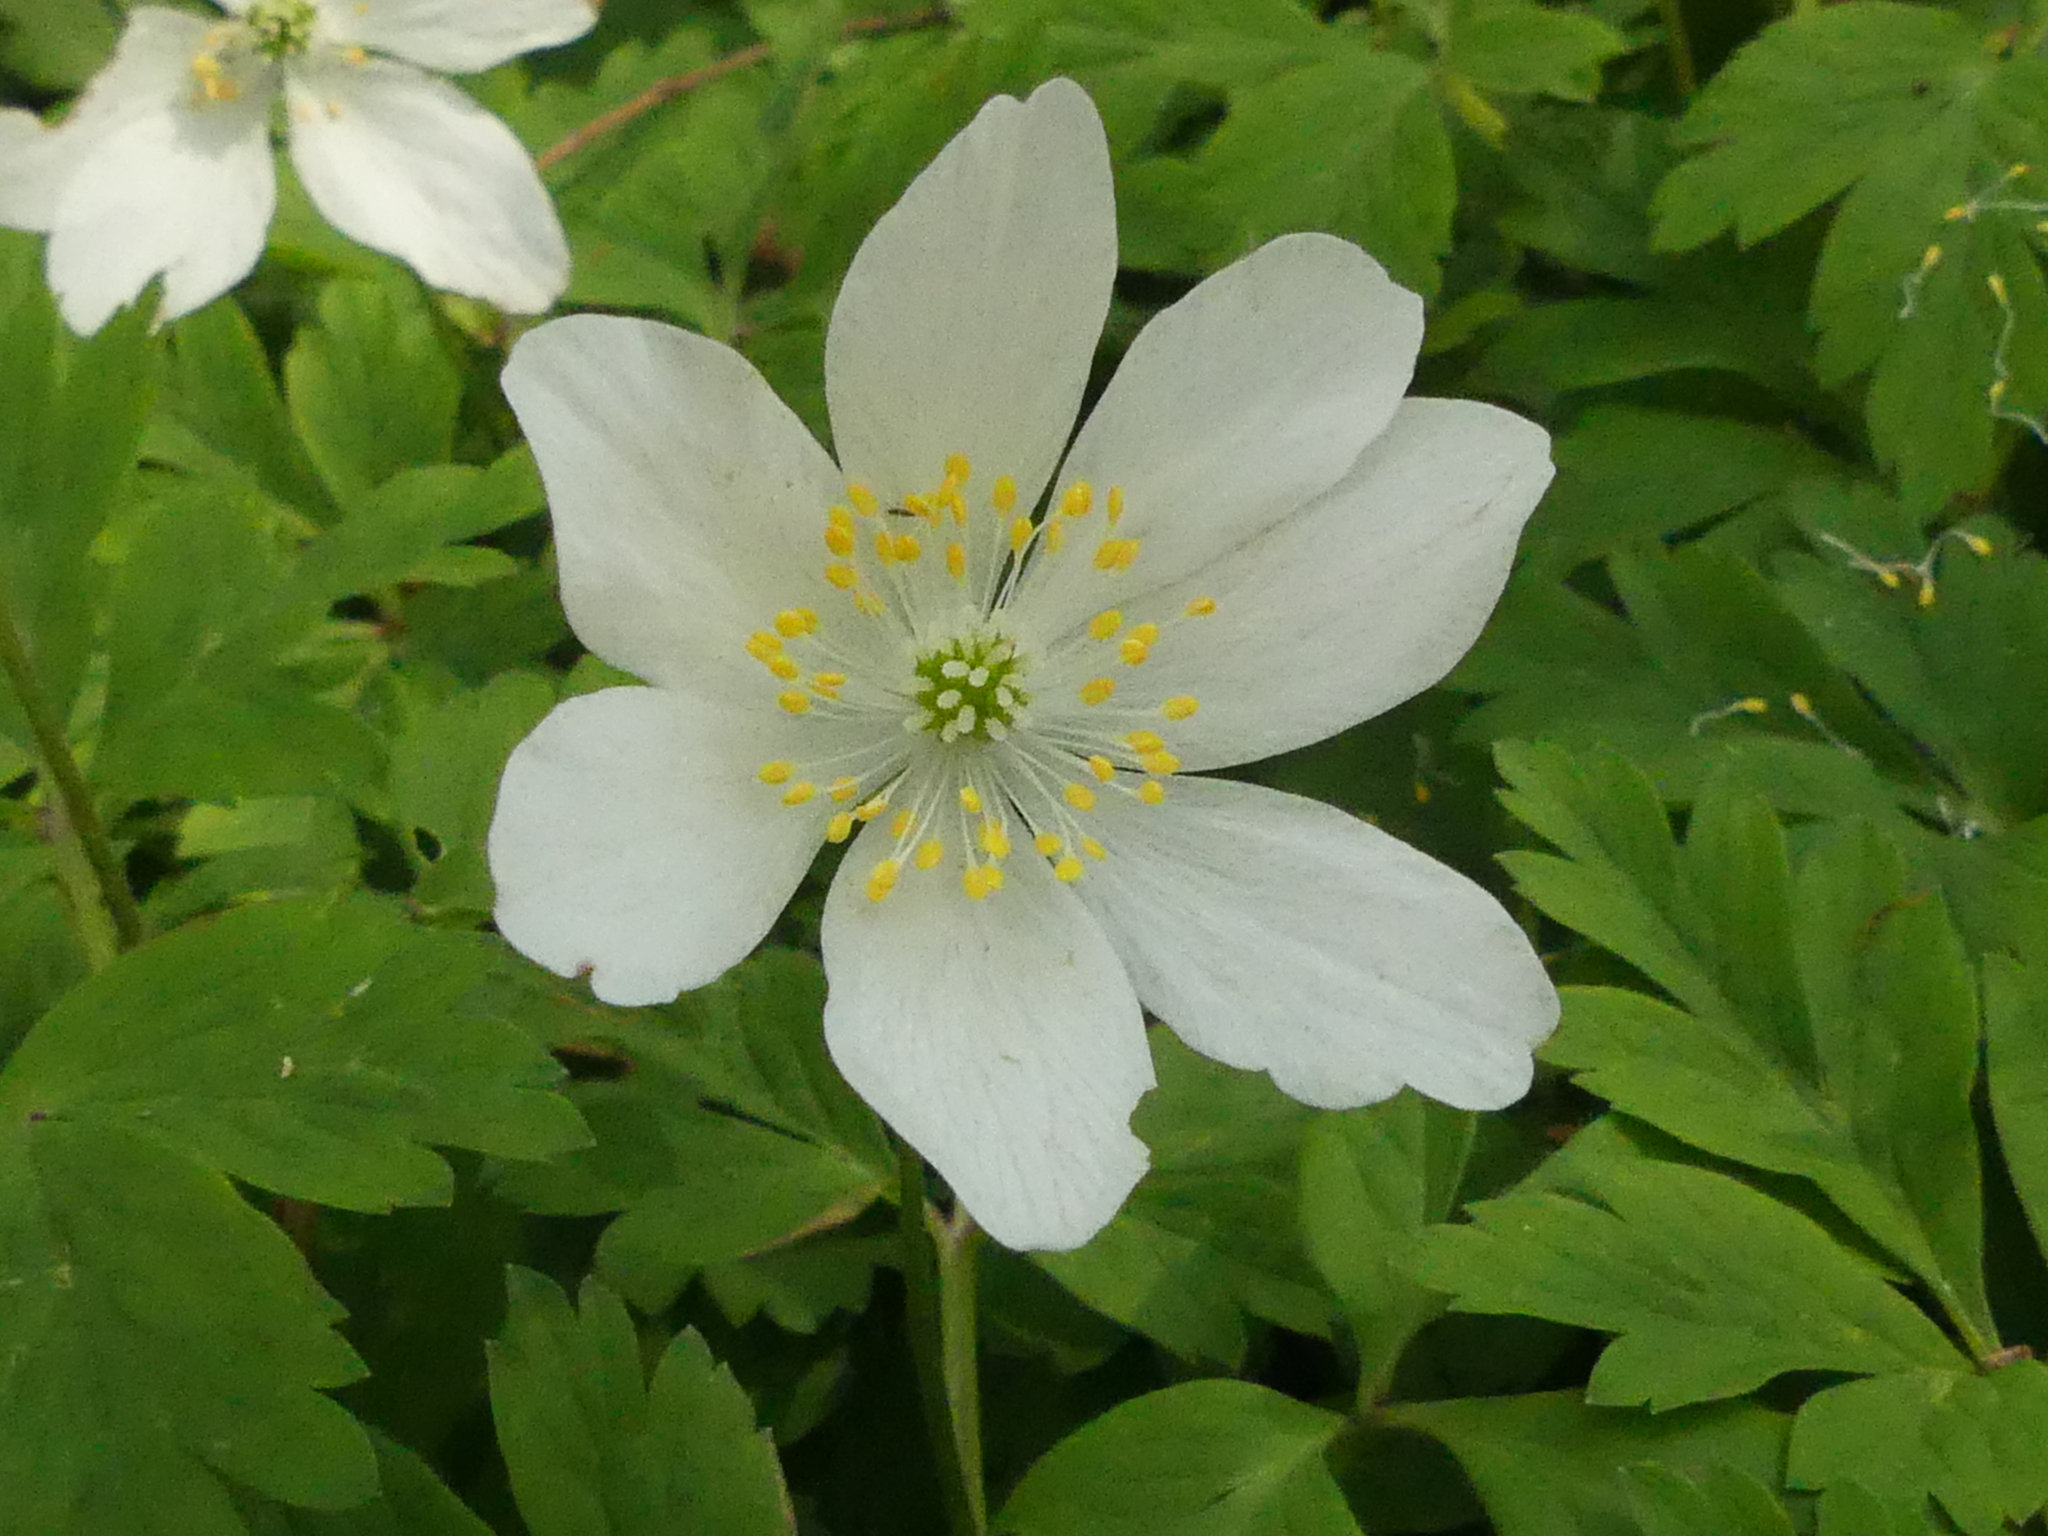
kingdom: Plantae
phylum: Tracheophyta
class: Magnoliopsida
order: Ranunculales
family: Ranunculaceae
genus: Anemone
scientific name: Anemone nemorosa
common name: Wood anemone
